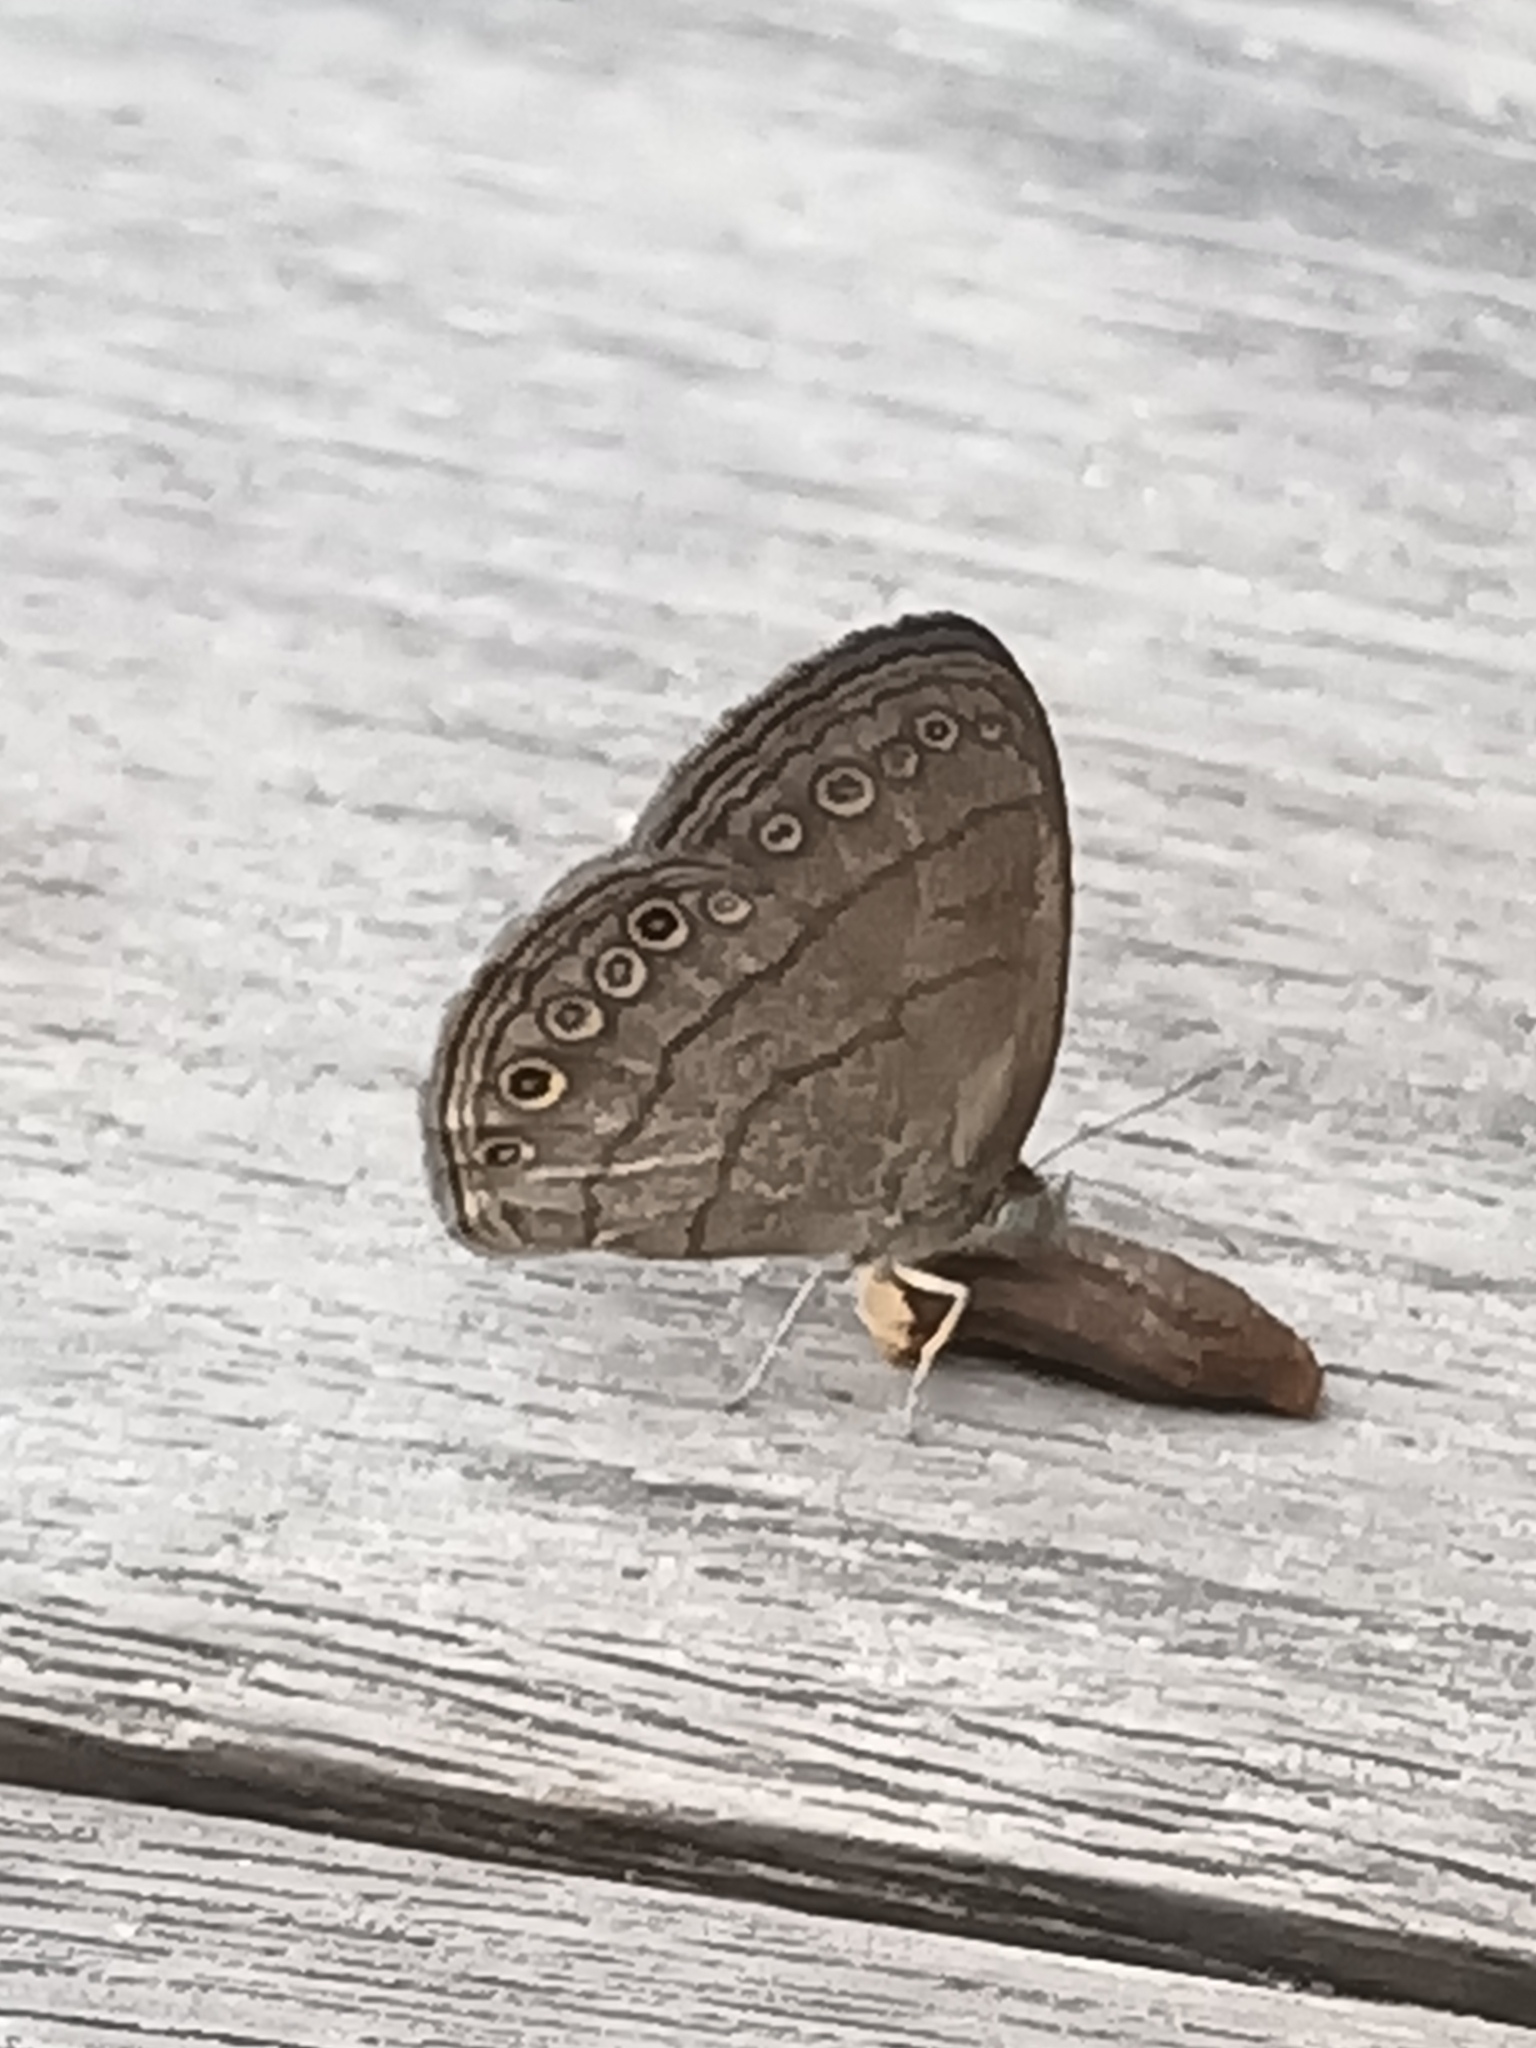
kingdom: Animalia
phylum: Arthropoda
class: Insecta
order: Lepidoptera
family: Nymphalidae
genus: Hermeuptychia
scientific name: Hermeuptychia hermes
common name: Hermes satyr
